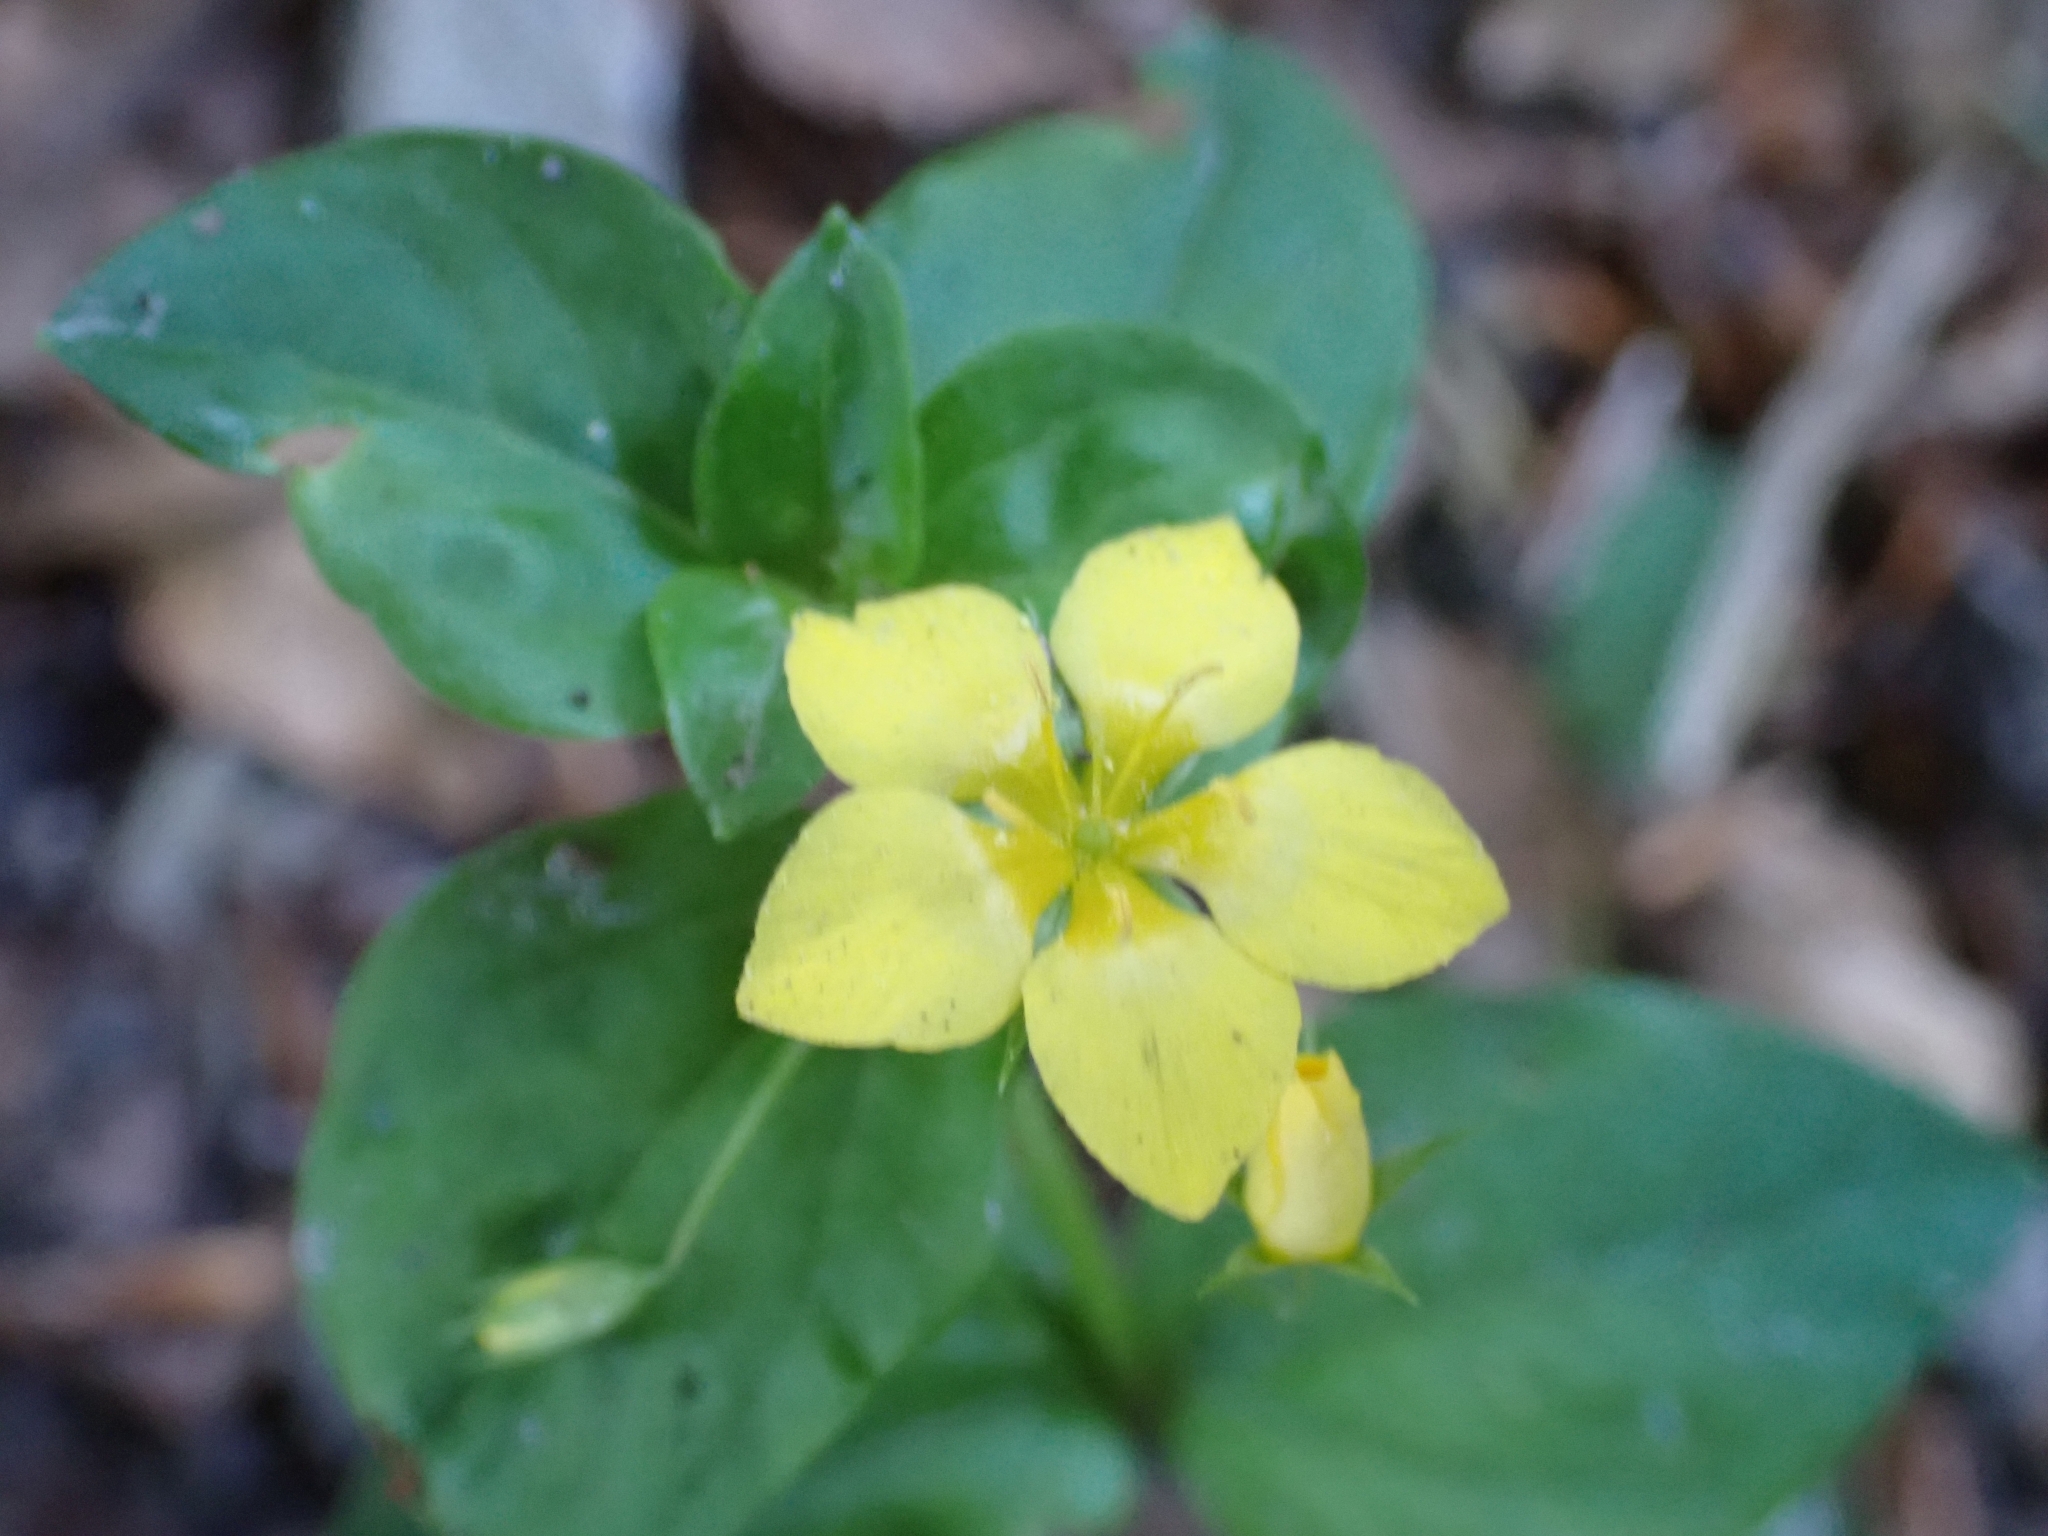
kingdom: Plantae
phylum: Tracheophyta
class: Magnoliopsida
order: Ericales
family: Primulaceae
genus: Lysimachia
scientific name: Lysimachia nemorum
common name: Yellow pimpernel
